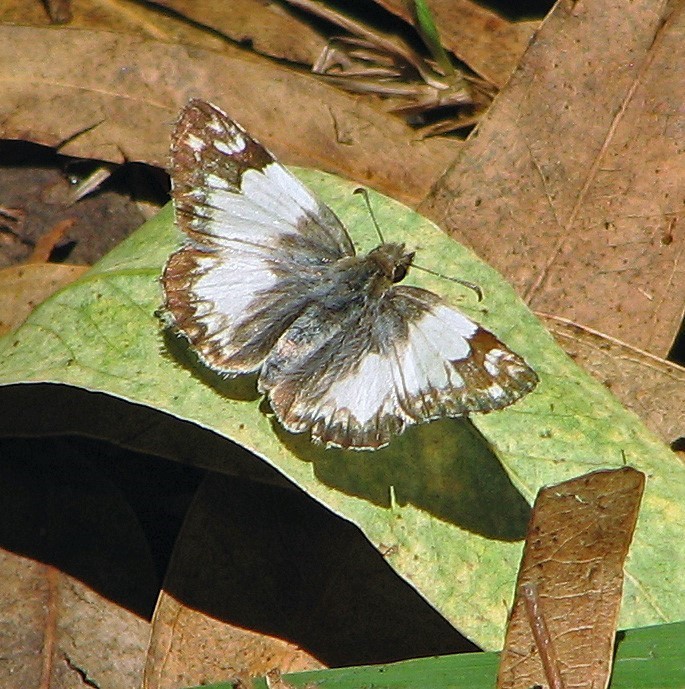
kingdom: Animalia
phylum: Arthropoda
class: Insecta
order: Lepidoptera
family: Hesperiidae
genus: Heliopetes
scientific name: Heliopetes omrina
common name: Stained white-skipper
